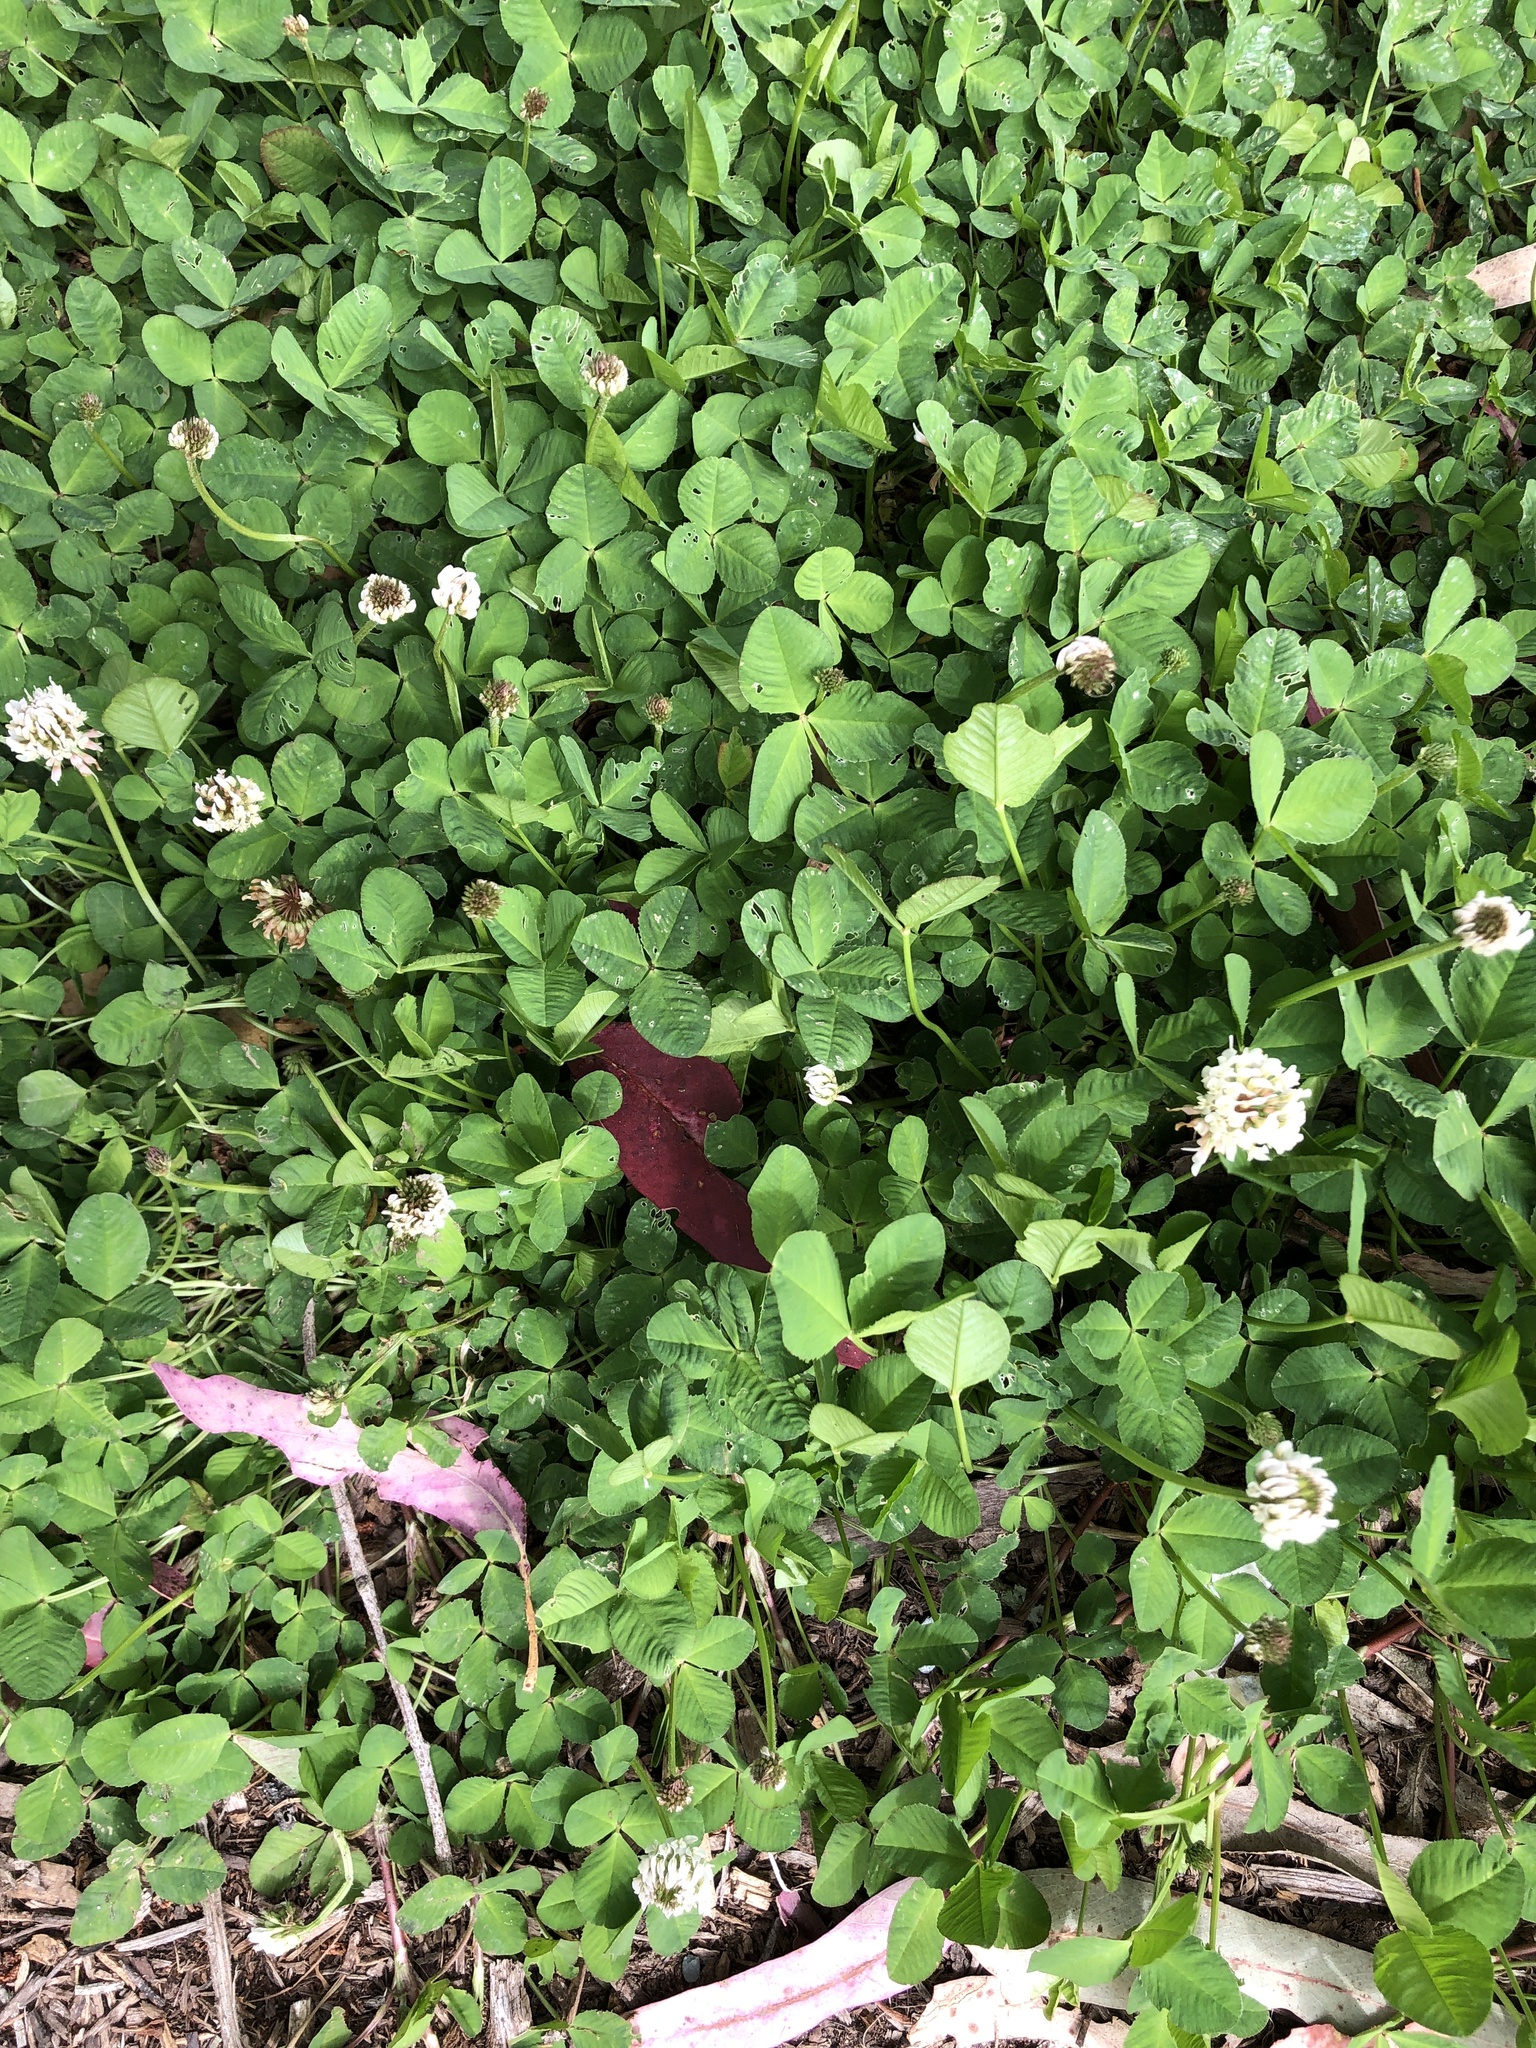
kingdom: Plantae
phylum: Tracheophyta
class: Magnoliopsida
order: Fabales
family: Fabaceae
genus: Trifolium
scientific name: Trifolium repens
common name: White clover
